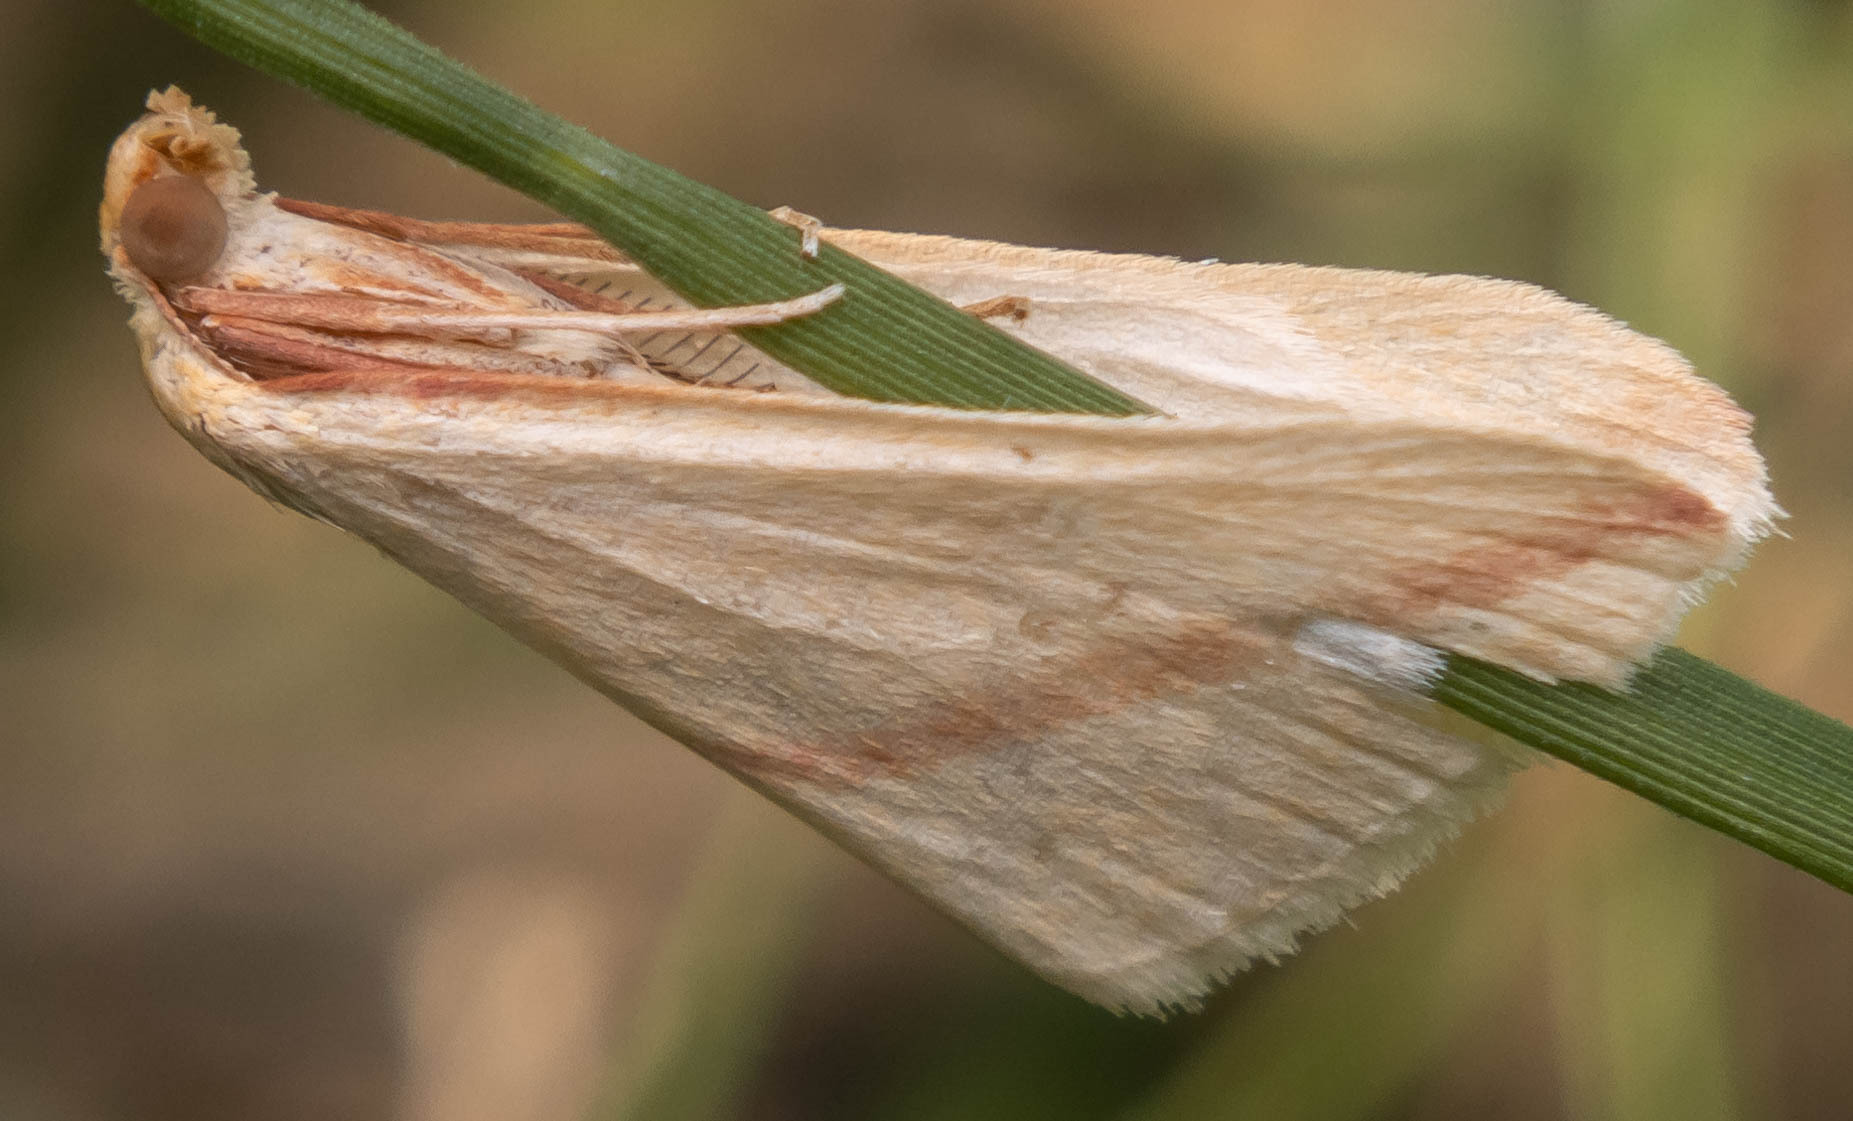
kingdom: Animalia
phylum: Arthropoda
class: Insecta
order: Lepidoptera
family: Geometridae
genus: Rhodometra
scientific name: Rhodometra sacraria
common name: Vestal
